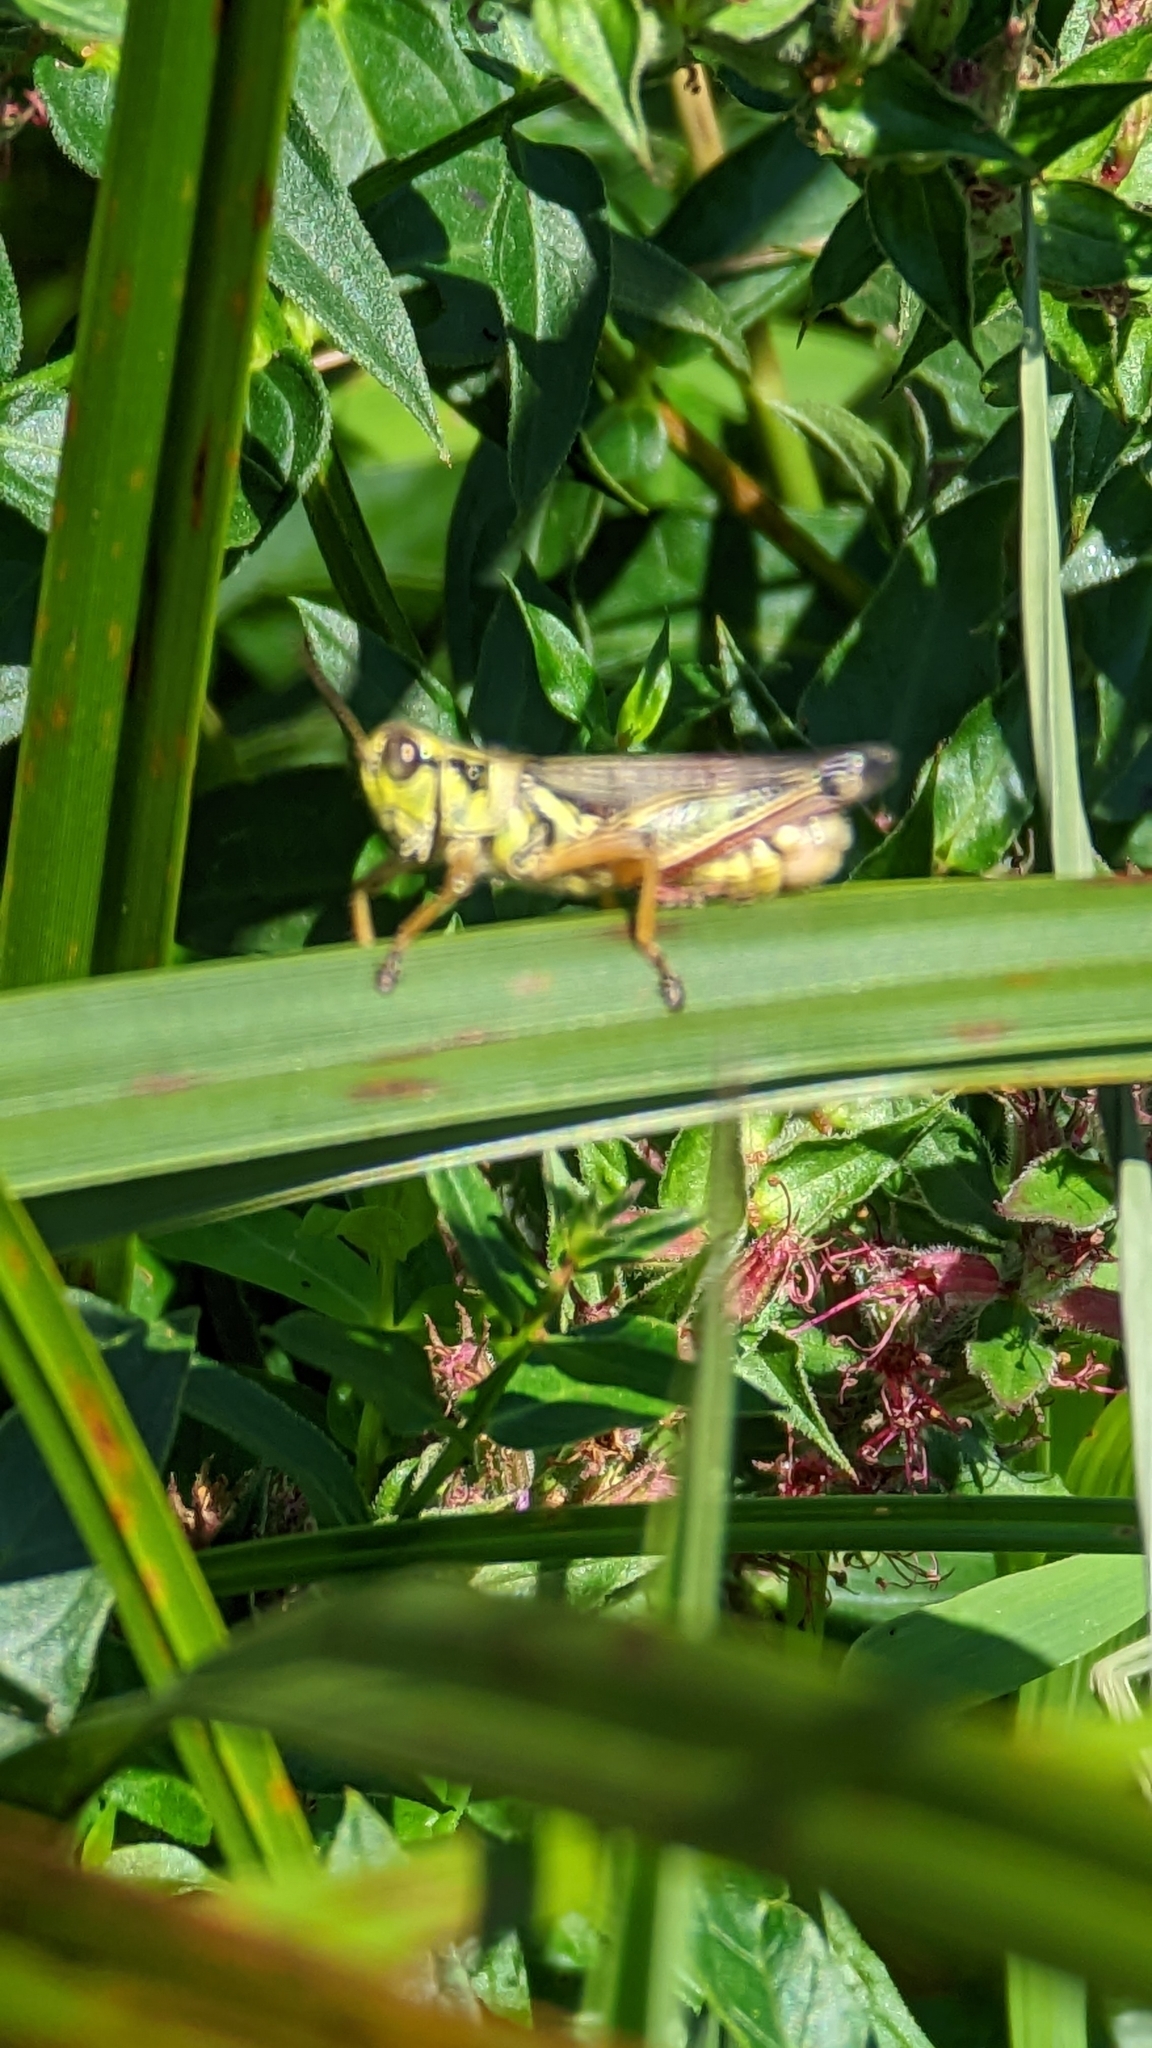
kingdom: Animalia
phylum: Arthropoda
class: Insecta
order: Orthoptera
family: Acrididae
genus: Melanoplus
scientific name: Melanoplus femurrubrum
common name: Red-legged grasshopper
